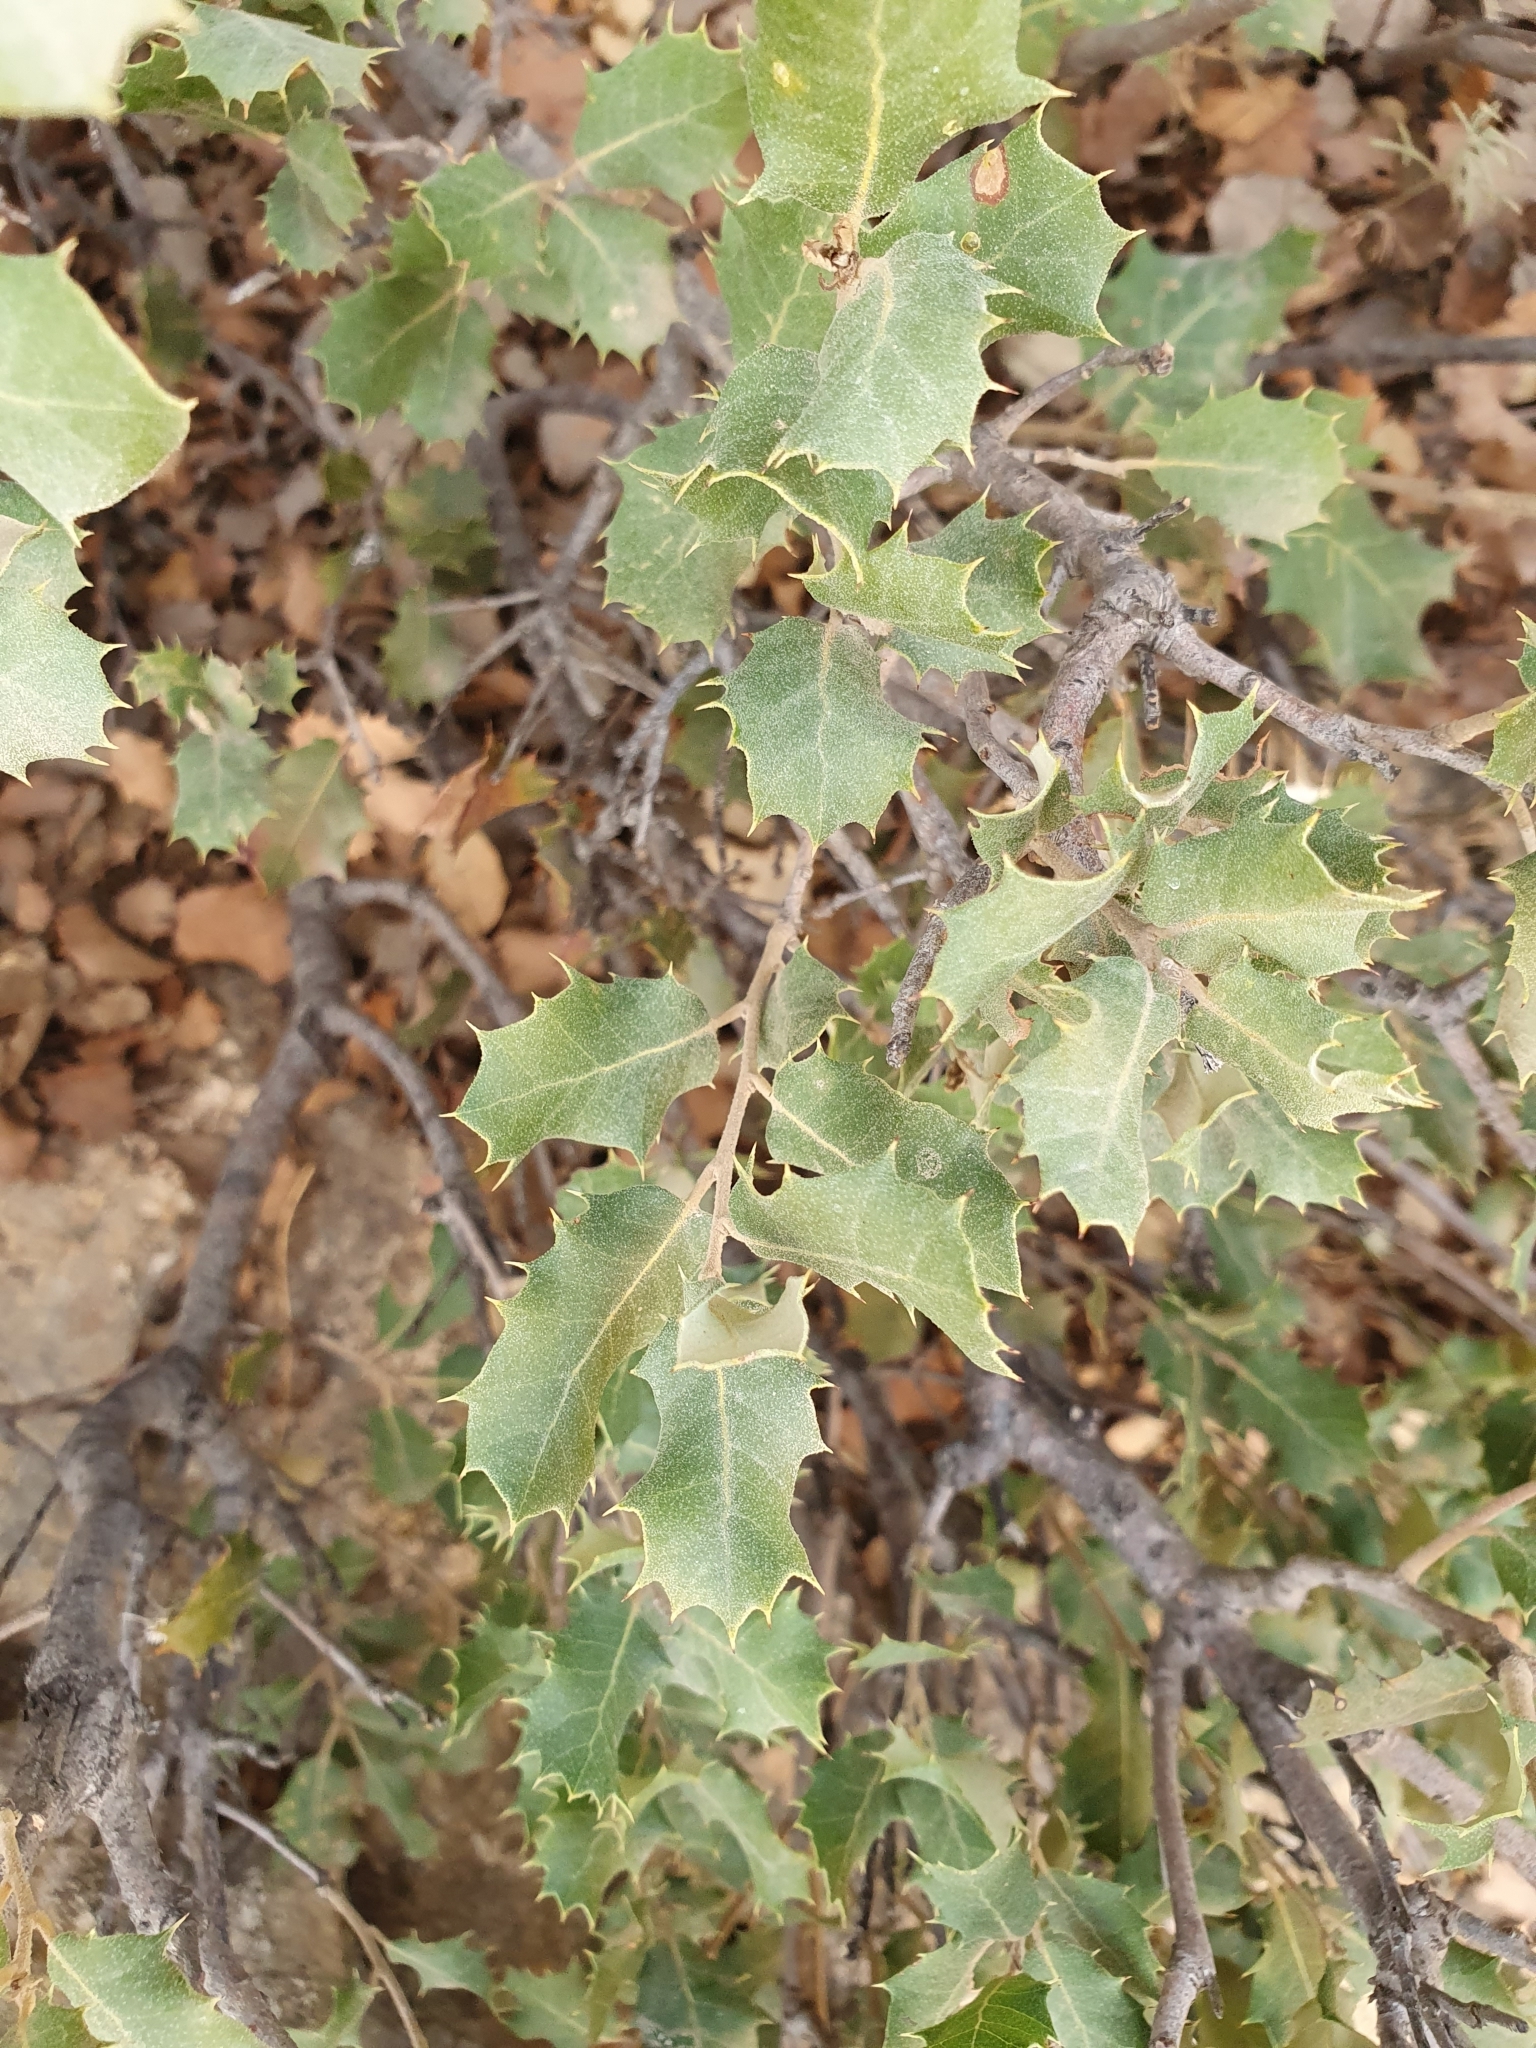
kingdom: Plantae
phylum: Tracheophyta
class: Magnoliopsida
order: Fagales
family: Fagaceae
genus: Quercus
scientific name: Quercus rotundifolia
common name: Holm oak
